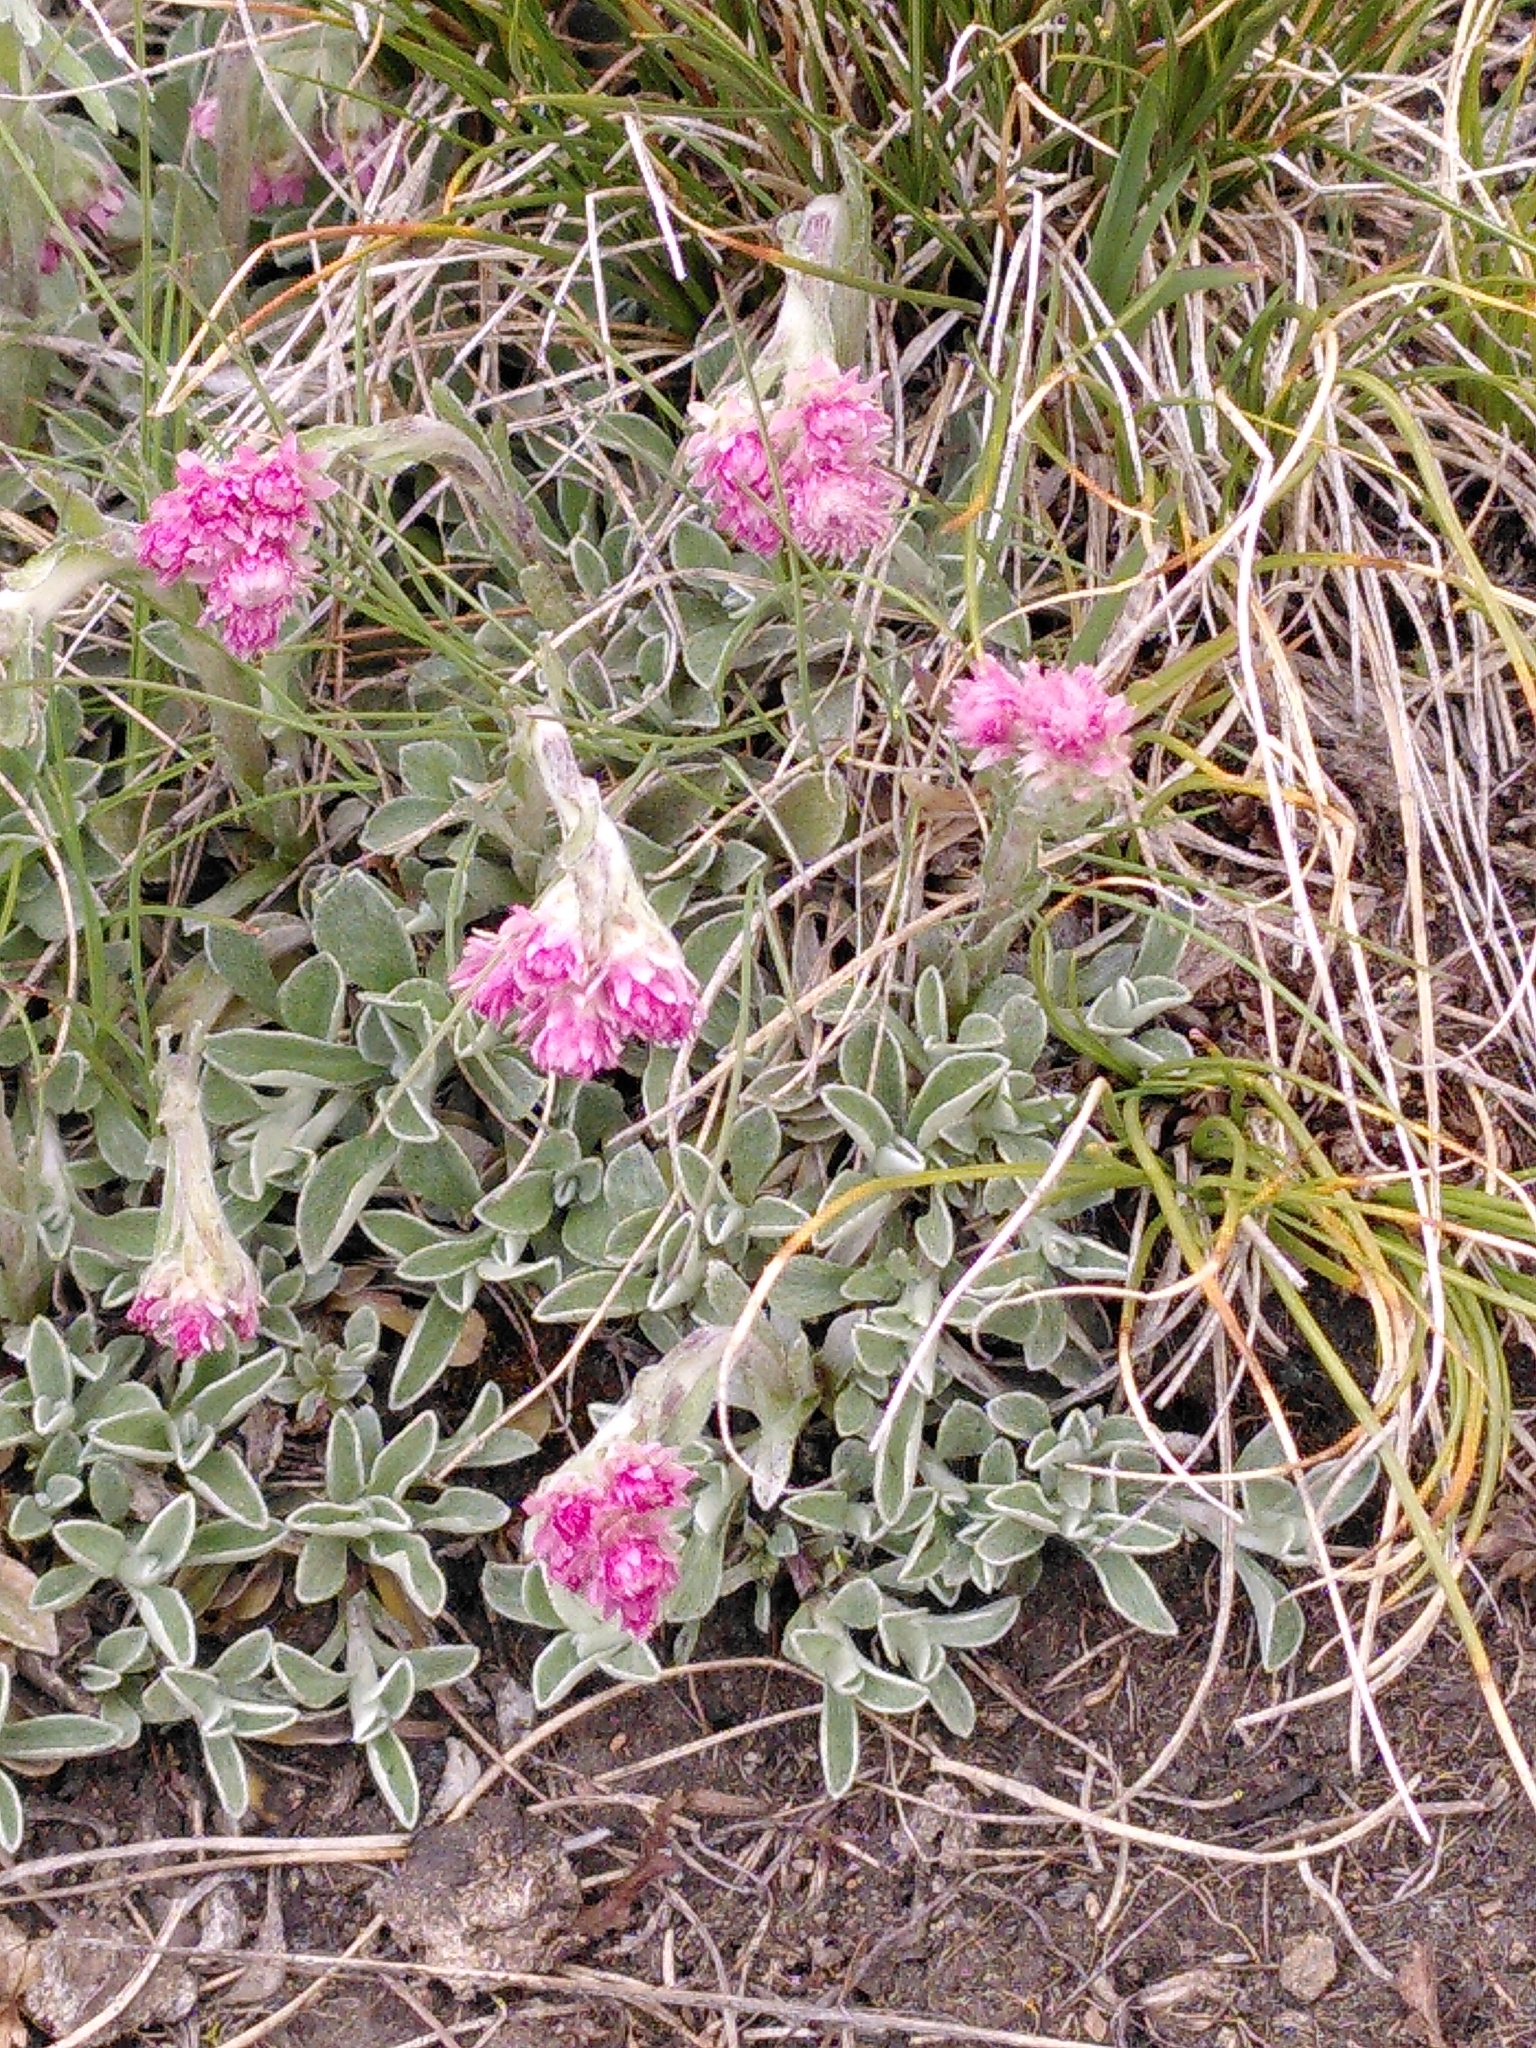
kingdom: Plantae
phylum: Tracheophyta
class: Magnoliopsida
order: Asterales
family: Asteraceae
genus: Antennaria
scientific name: Antennaria dioica
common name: Mountain everlasting
